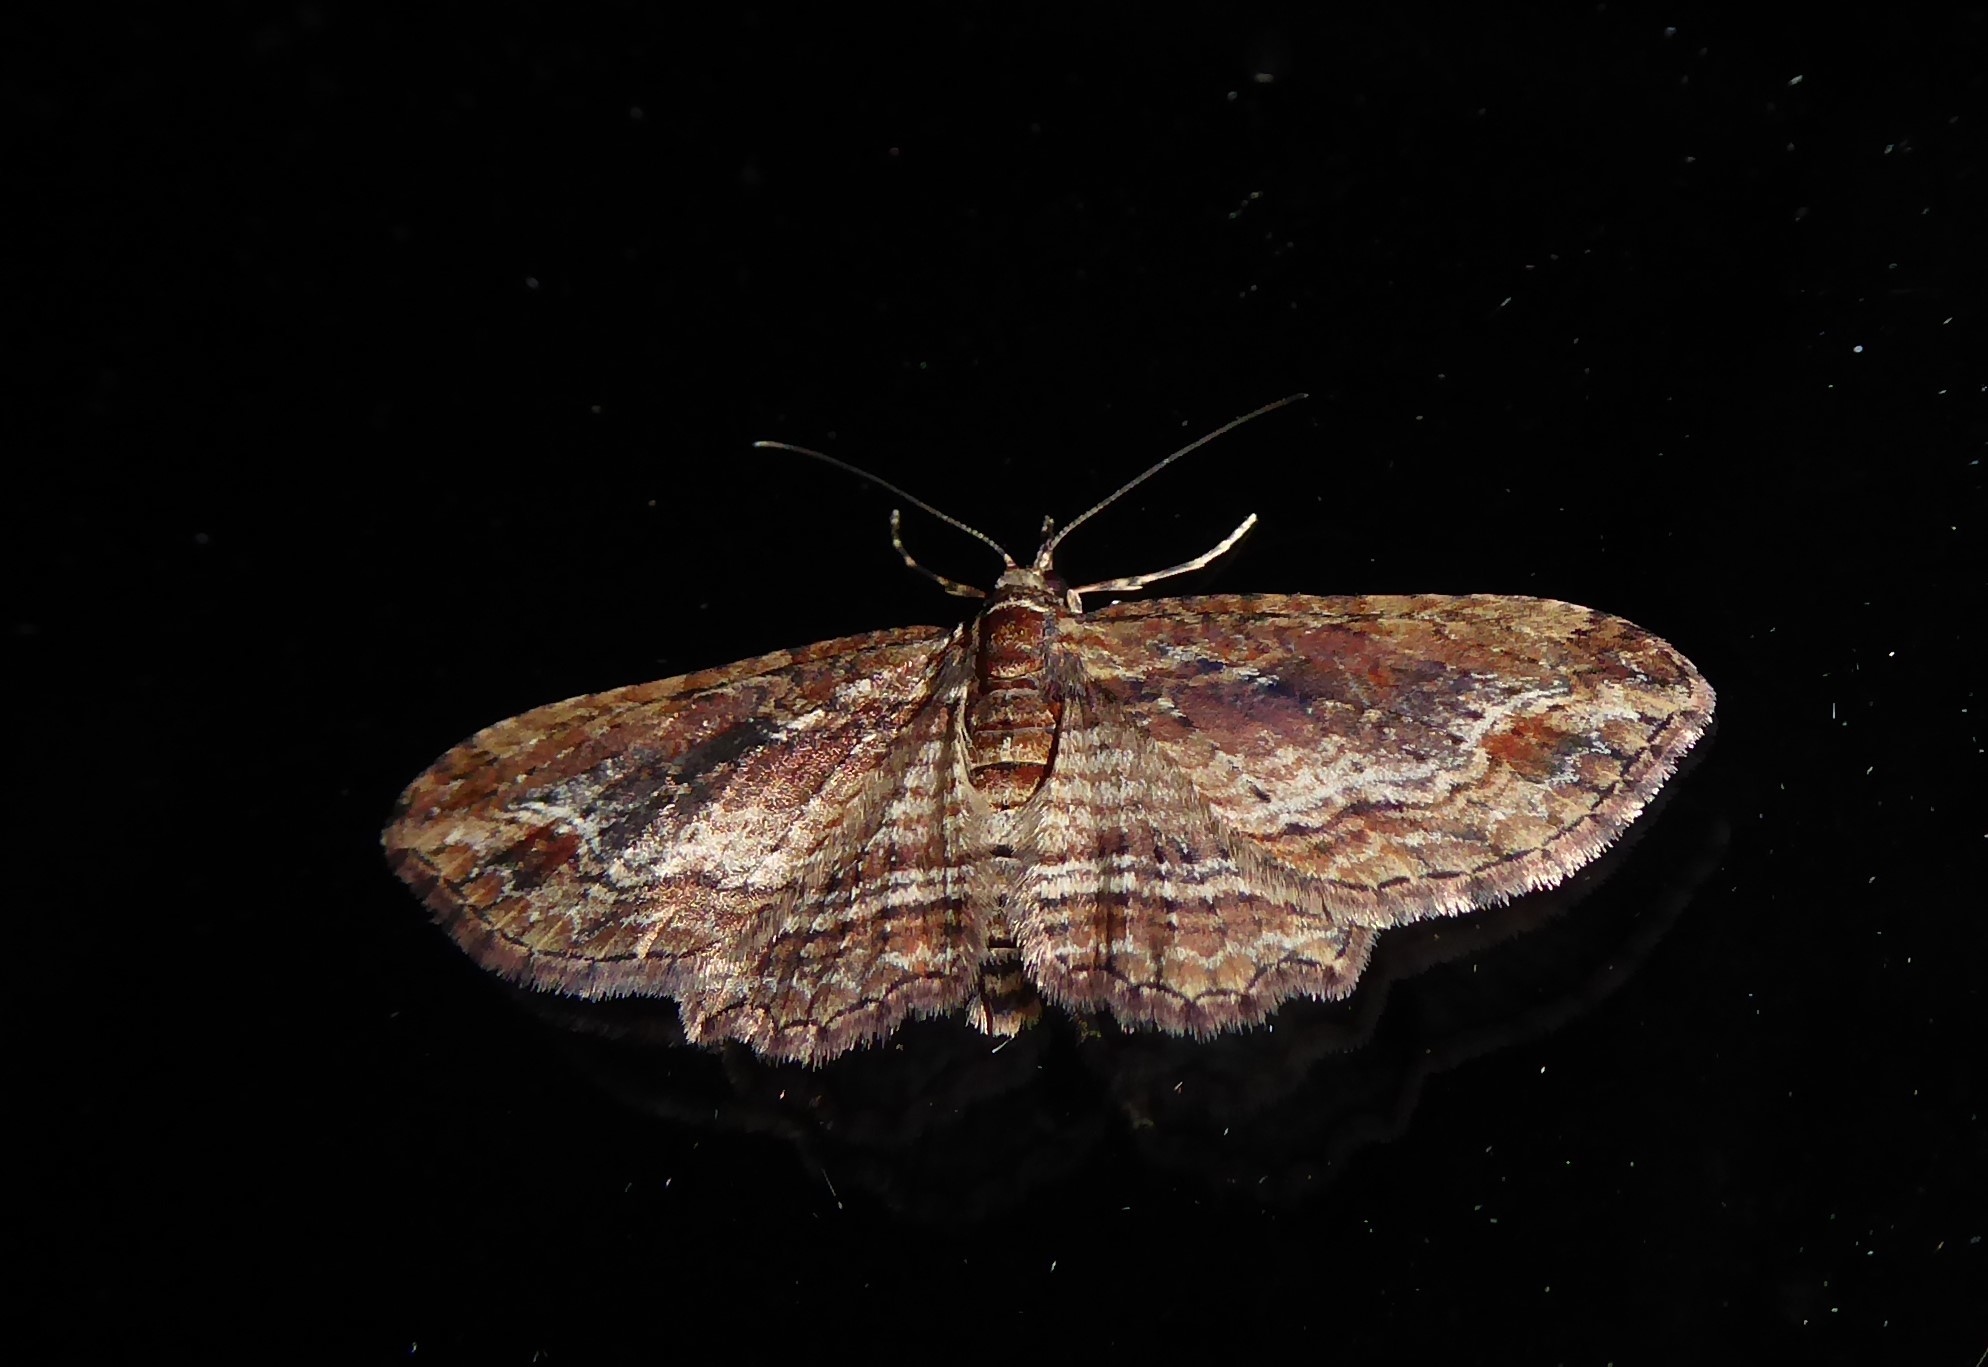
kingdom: Animalia
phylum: Arthropoda
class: Insecta
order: Lepidoptera
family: Geometridae
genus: Chloroclystis
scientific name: Chloroclystis filata
